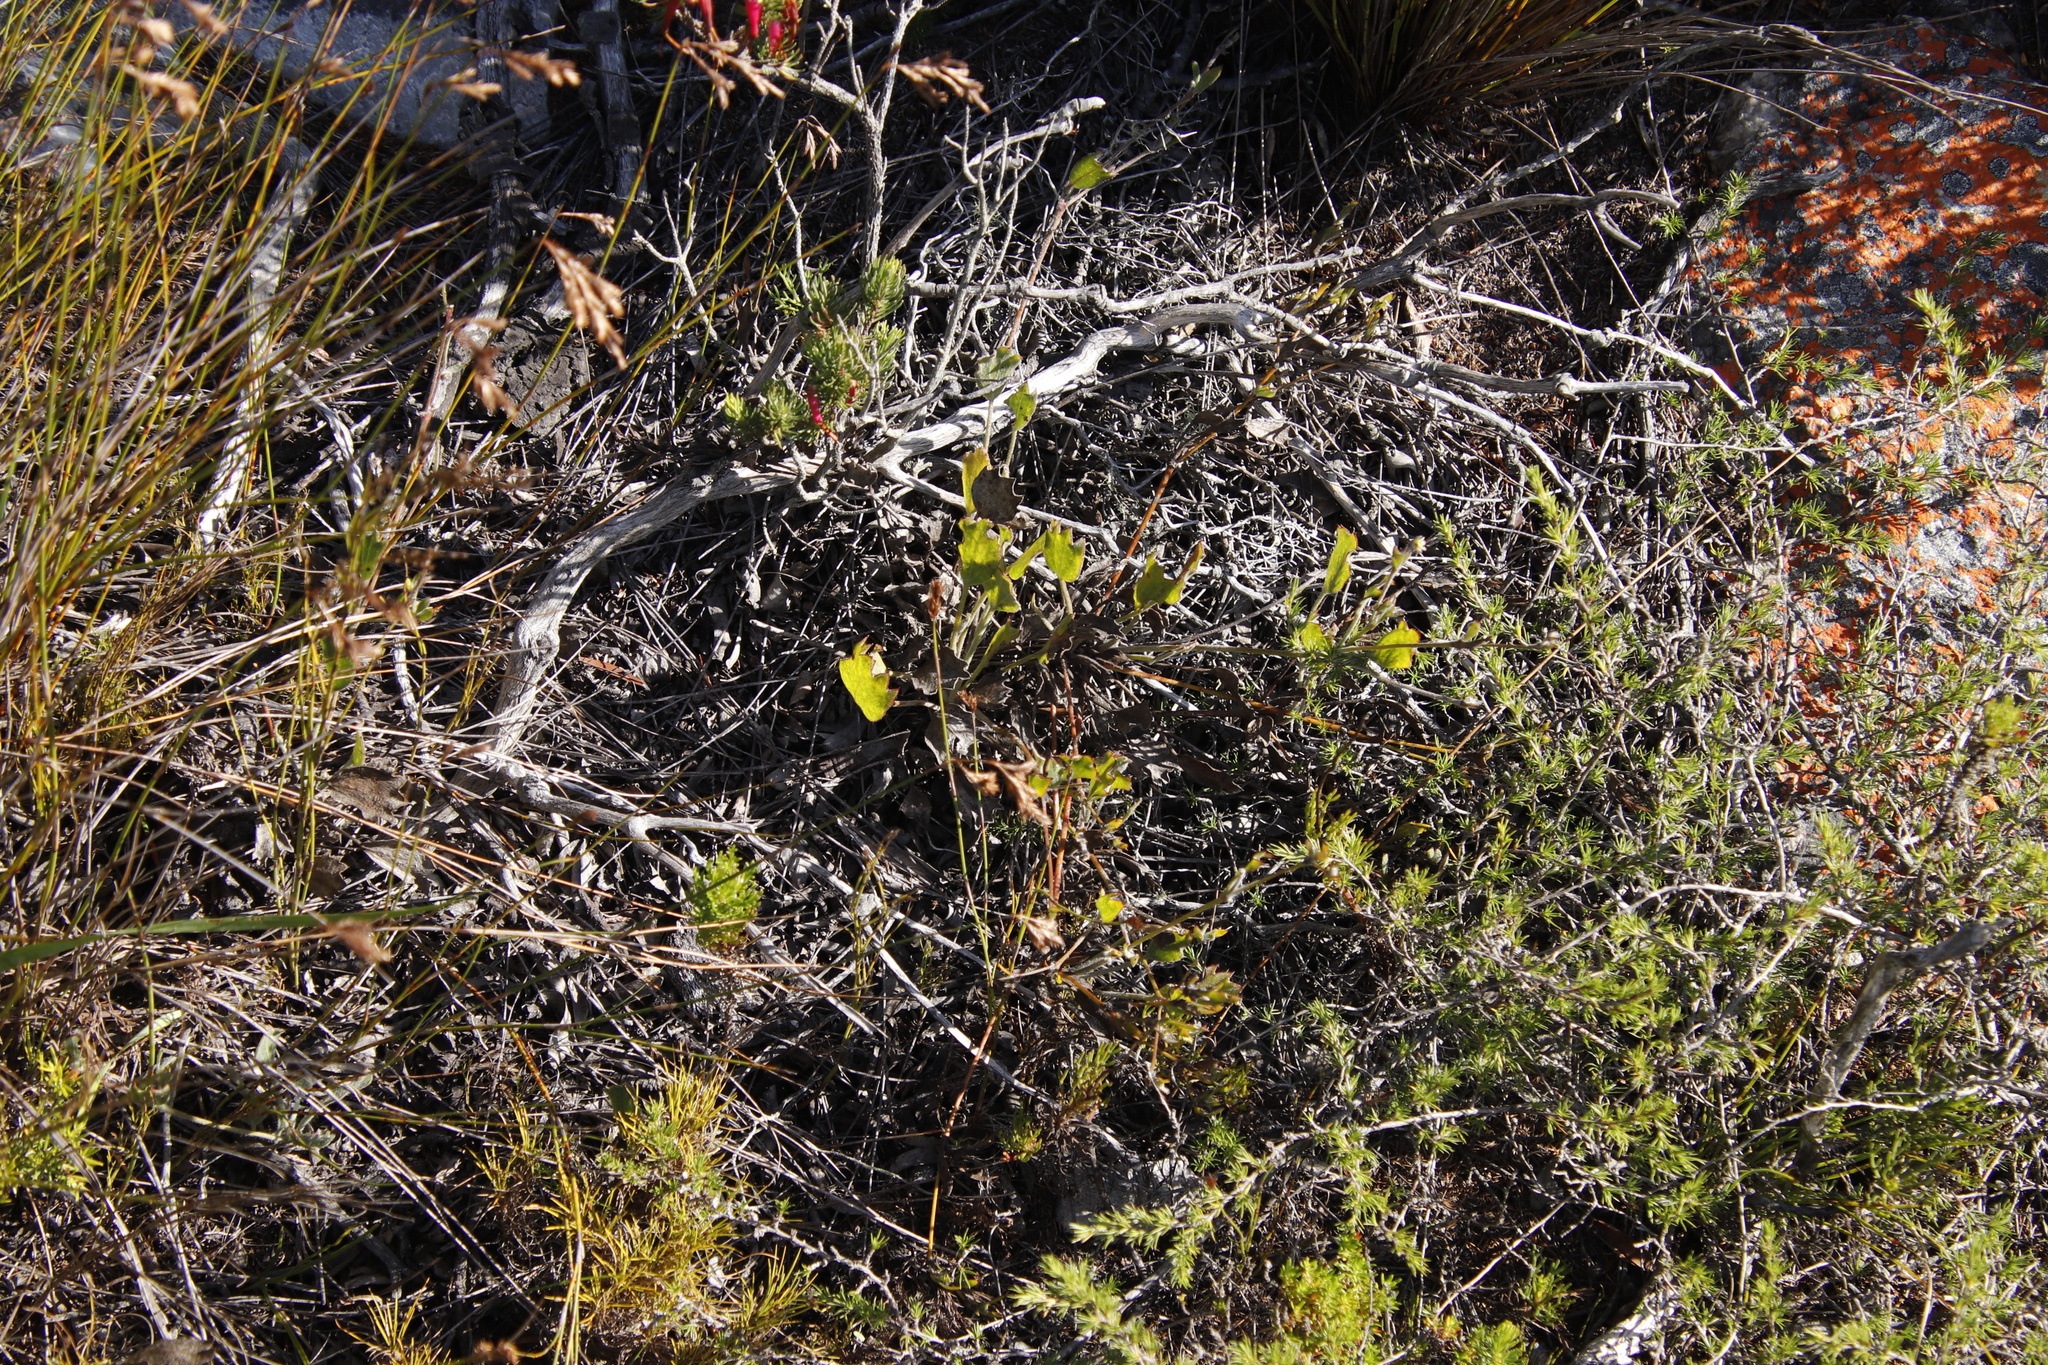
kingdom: Plantae
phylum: Tracheophyta
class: Magnoliopsida
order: Apiales
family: Apiaceae
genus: Centella
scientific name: Centella difformis
